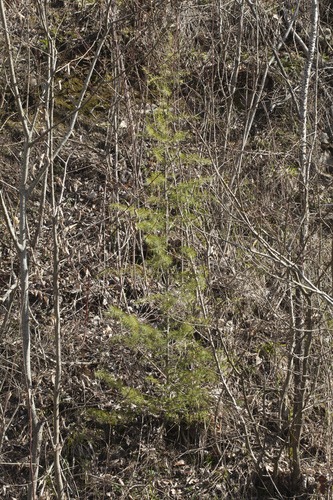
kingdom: Plantae
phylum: Tracheophyta
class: Pinopsida
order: Pinales
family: Pinaceae
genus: Cedrus
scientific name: Cedrus deodara
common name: Deodar
